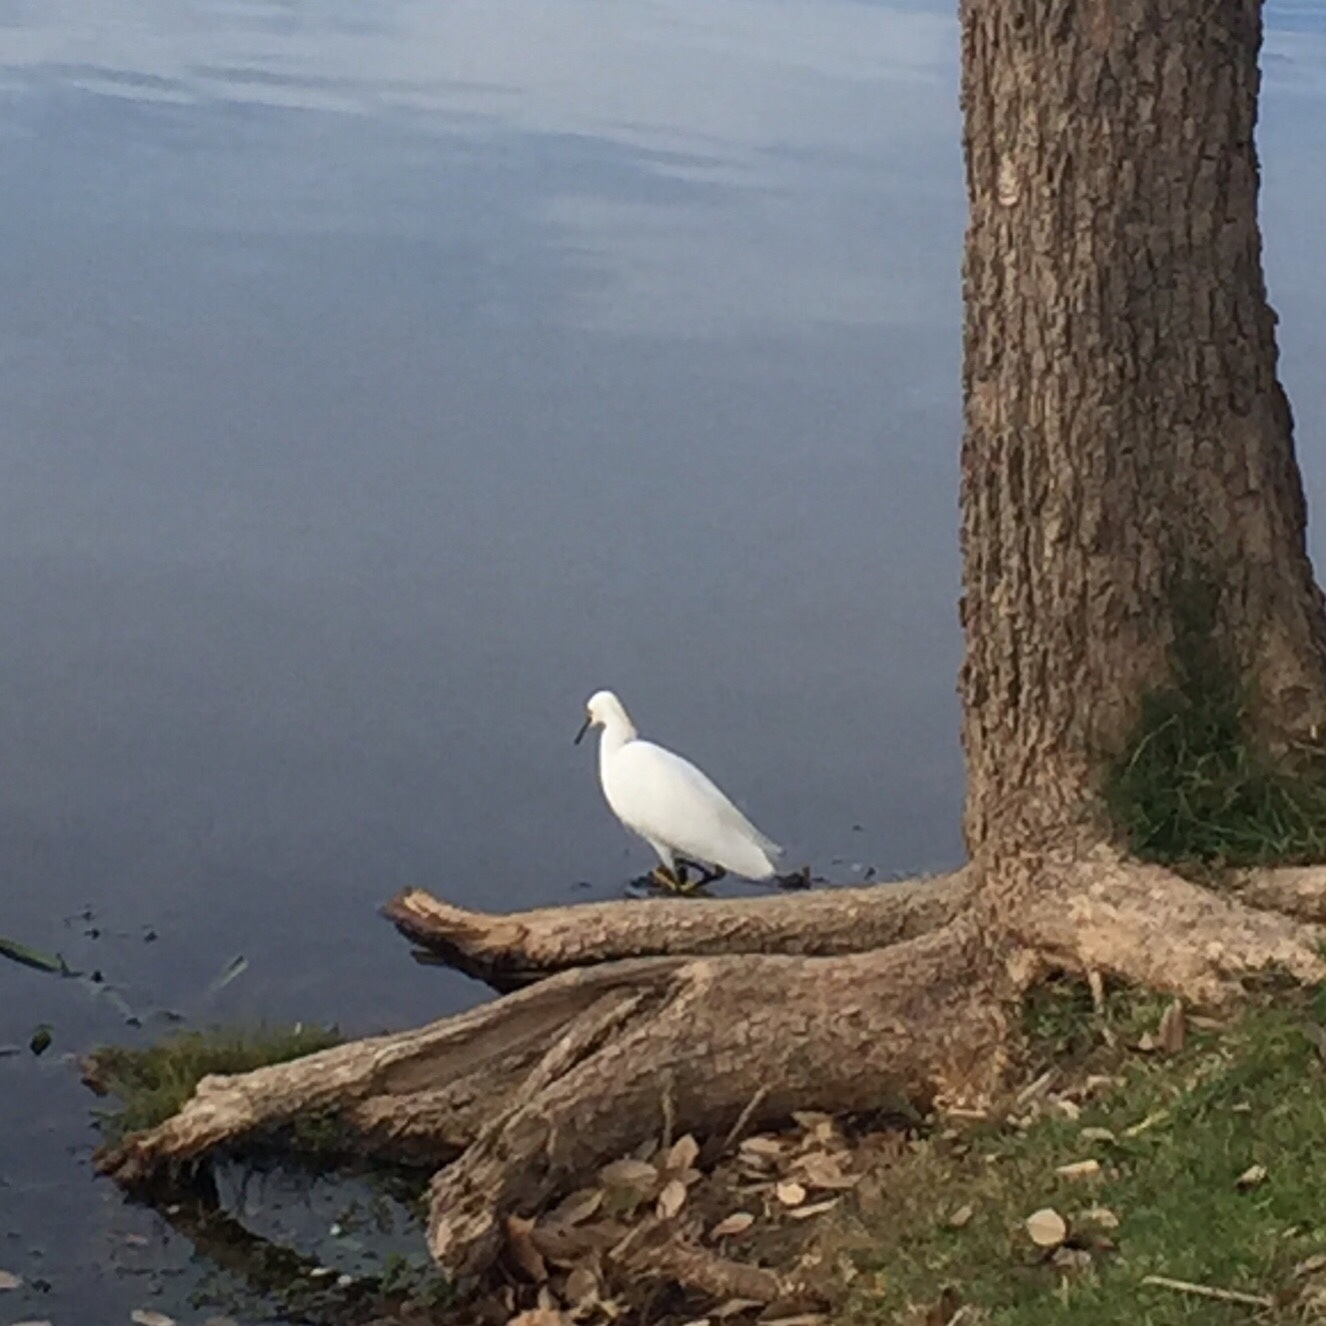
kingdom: Animalia
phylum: Chordata
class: Aves
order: Pelecaniformes
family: Ardeidae
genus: Egretta
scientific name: Egretta thula
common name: Snowy egret
